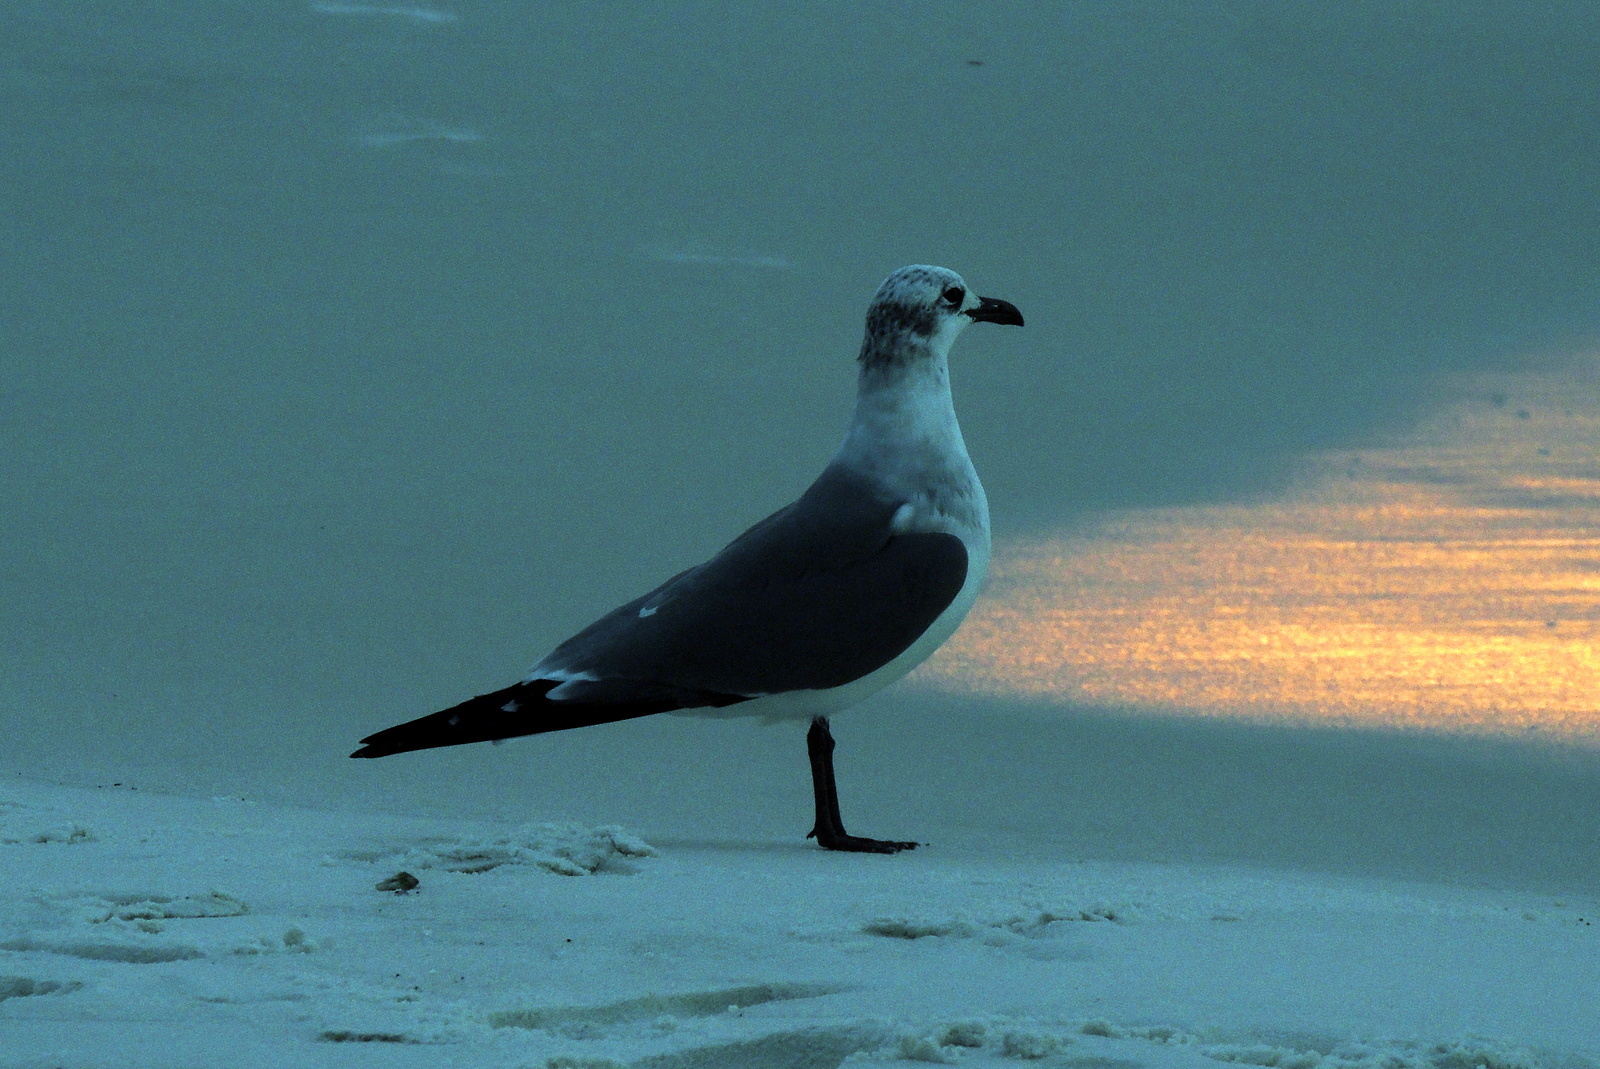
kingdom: Animalia
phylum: Chordata
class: Aves
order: Charadriiformes
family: Laridae
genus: Leucophaeus
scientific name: Leucophaeus atricilla
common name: Laughing gull
